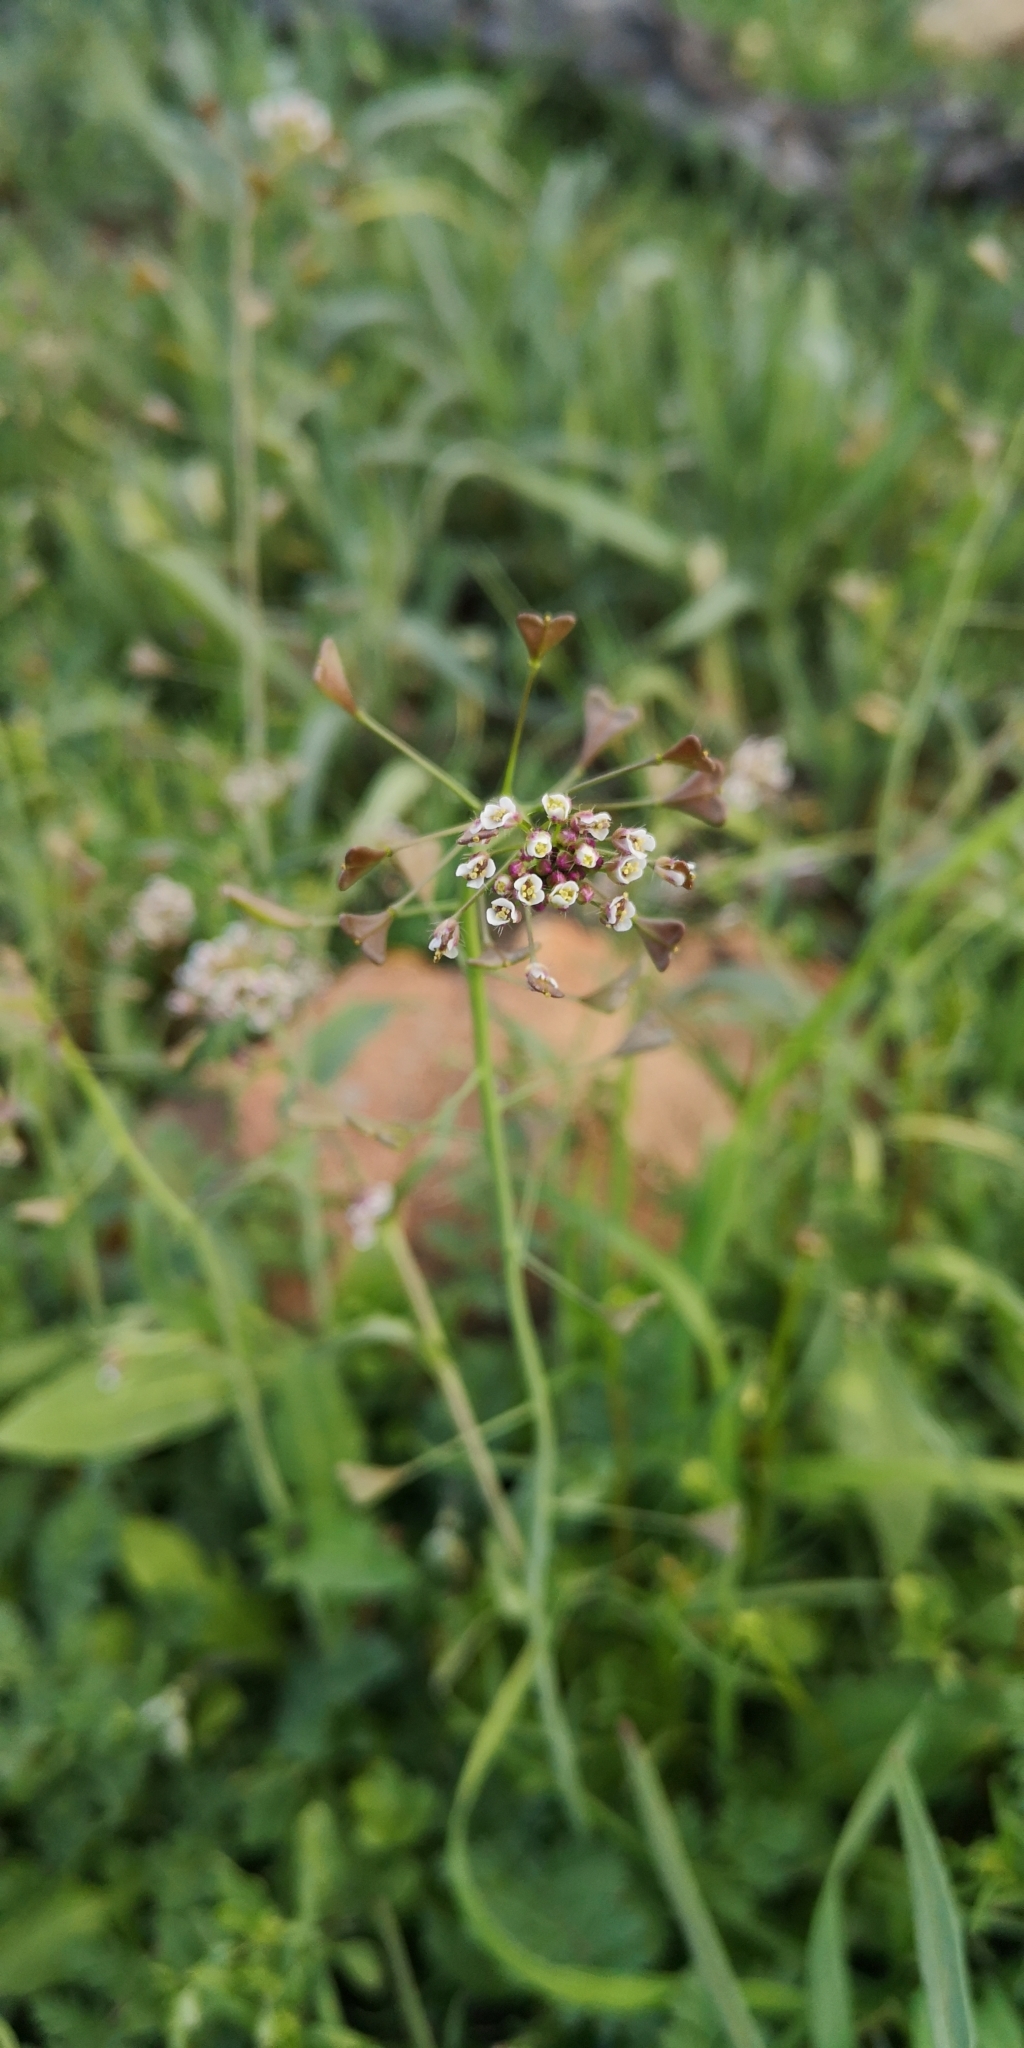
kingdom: Plantae
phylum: Tracheophyta
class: Magnoliopsida
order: Brassicales
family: Brassicaceae
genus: Capsella
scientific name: Capsella bursa-pastoris
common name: Shepherd's purse
